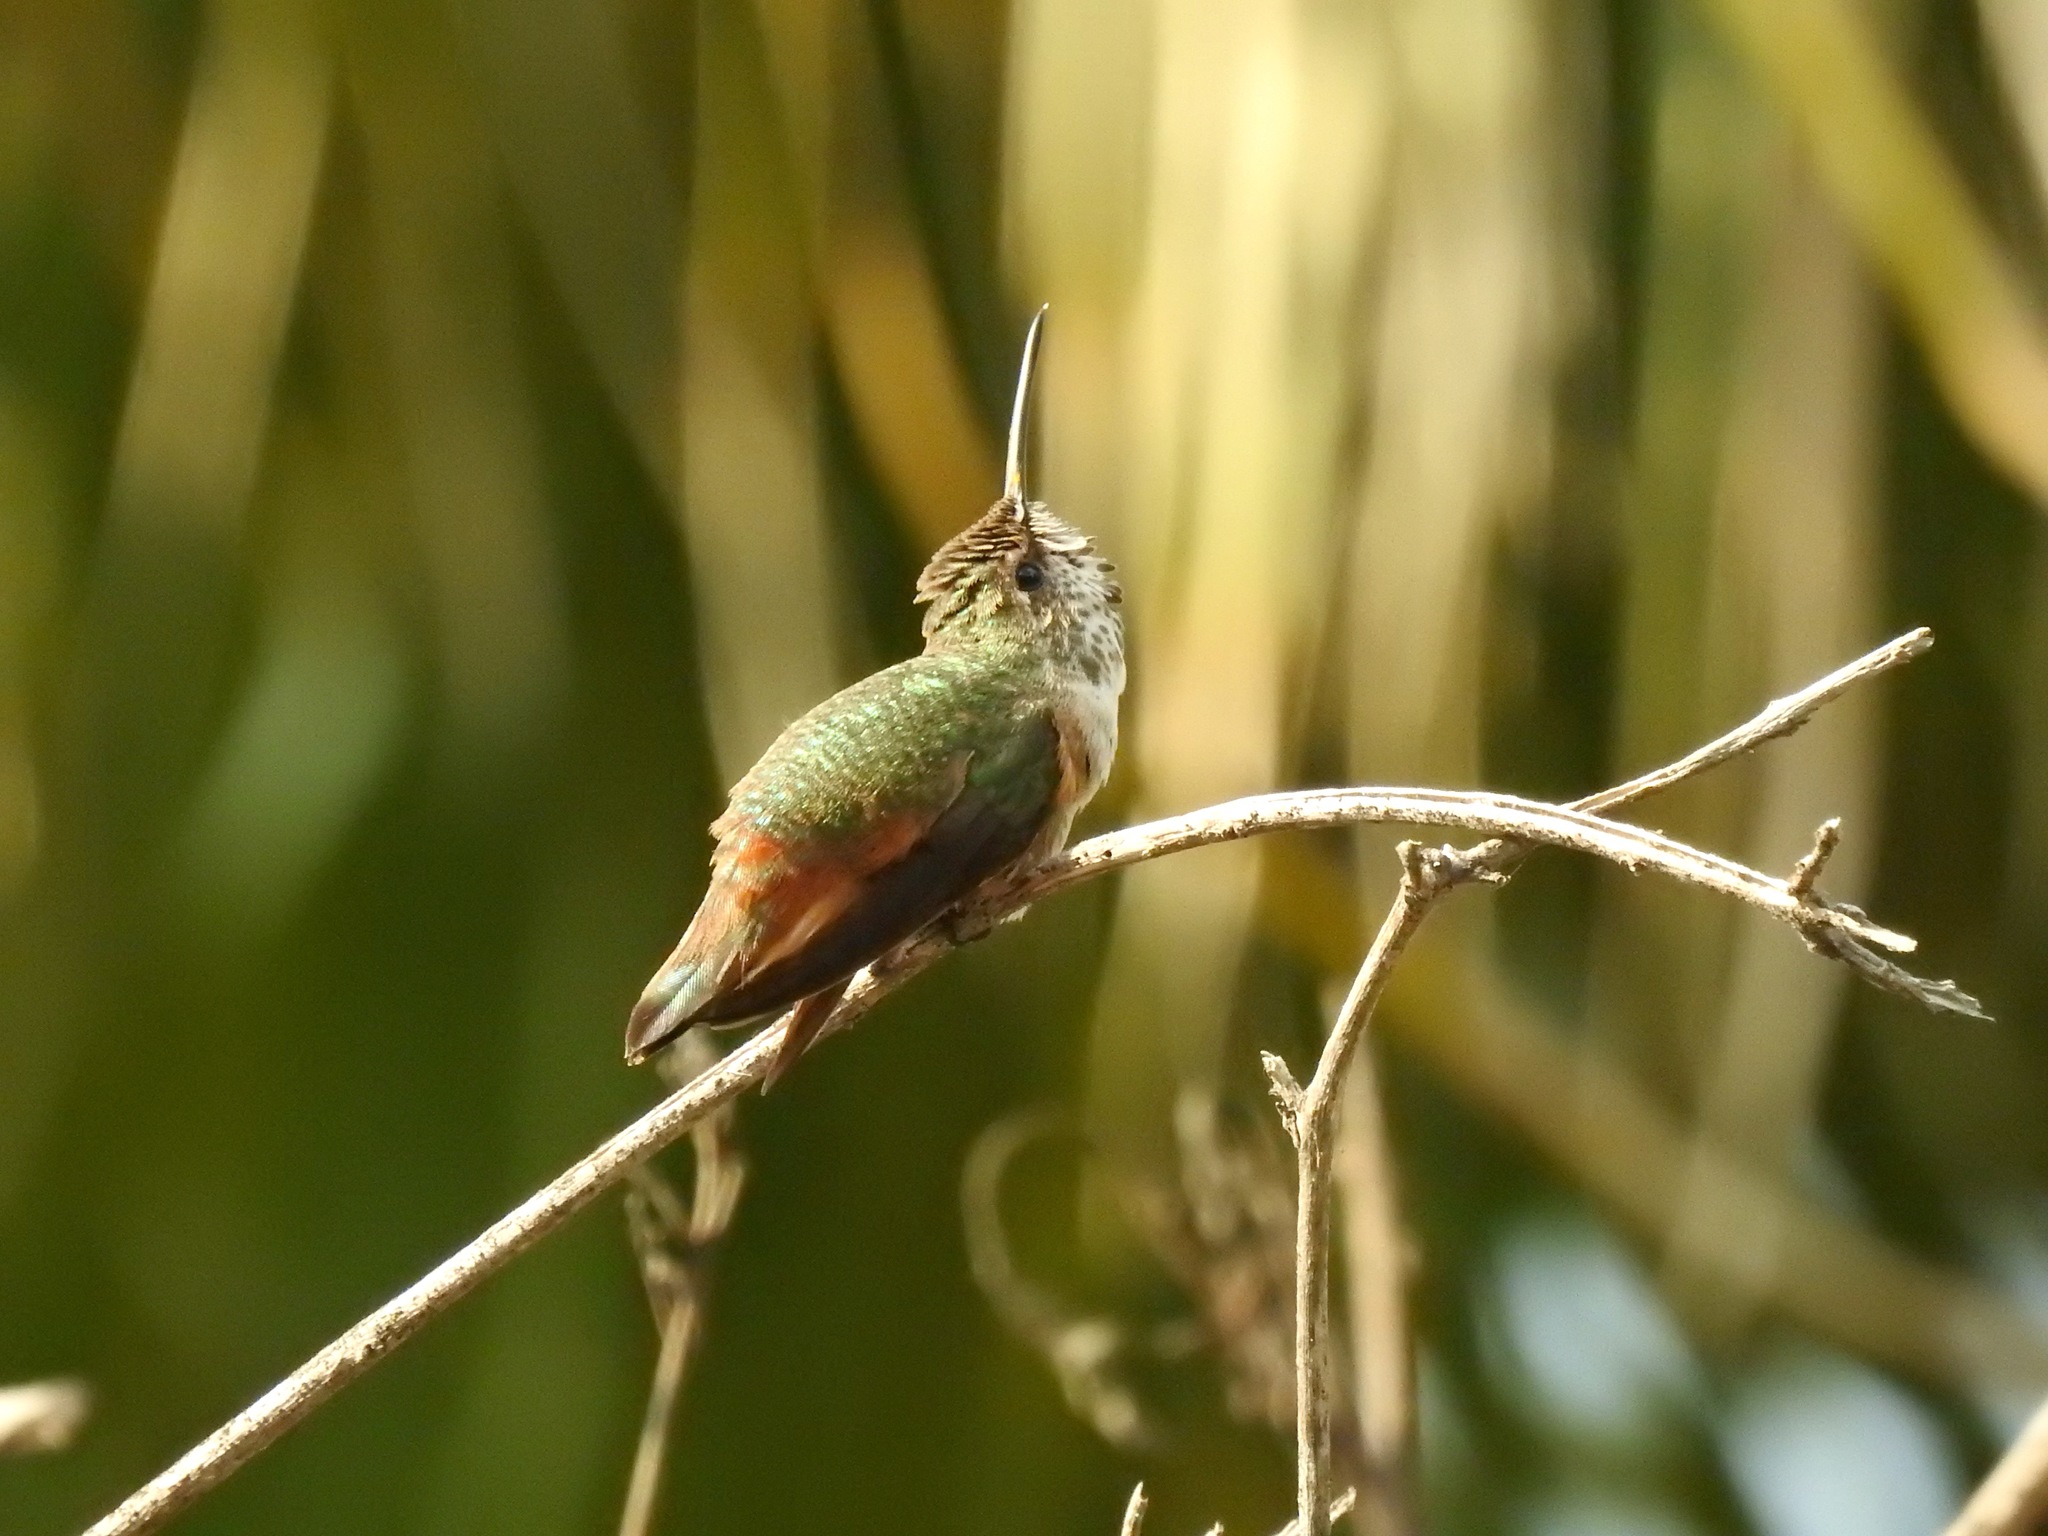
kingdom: Animalia
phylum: Chordata
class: Aves
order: Apodiformes
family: Trochilidae
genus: Selasphorus
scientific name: Selasphorus sasin
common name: Allen's hummingbird
